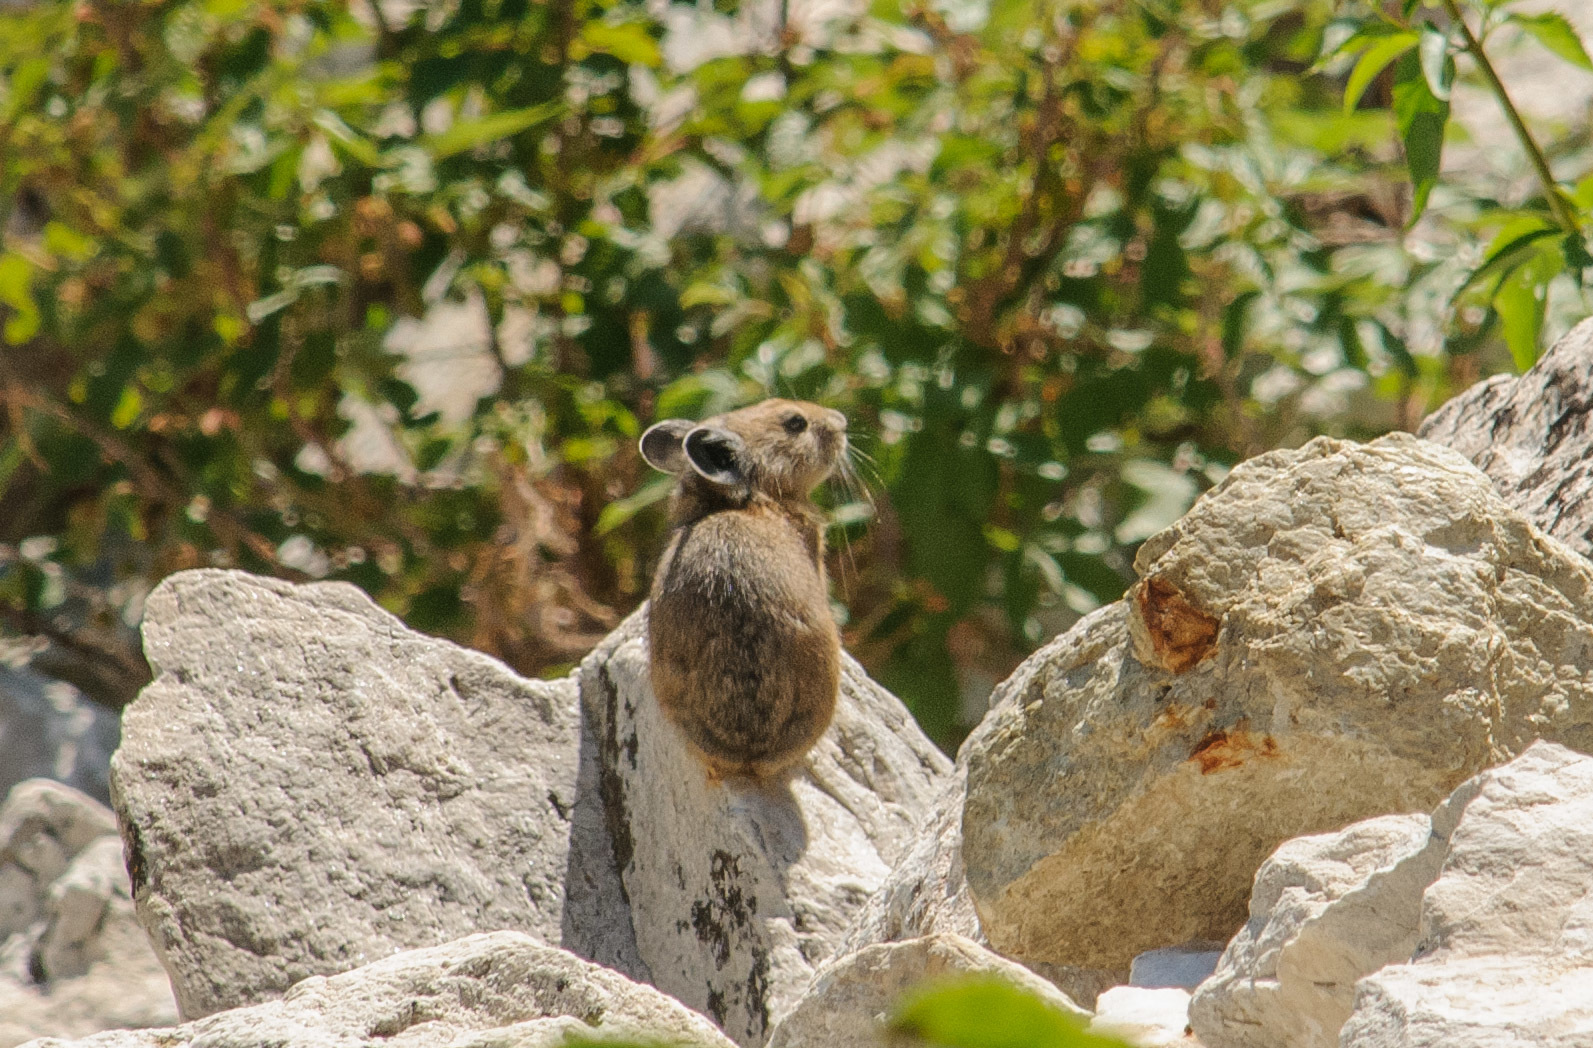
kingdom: Animalia
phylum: Chordata
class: Mammalia
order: Lagomorpha
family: Ochotonidae
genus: Ochotona
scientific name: Ochotona princeps
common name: American pika
